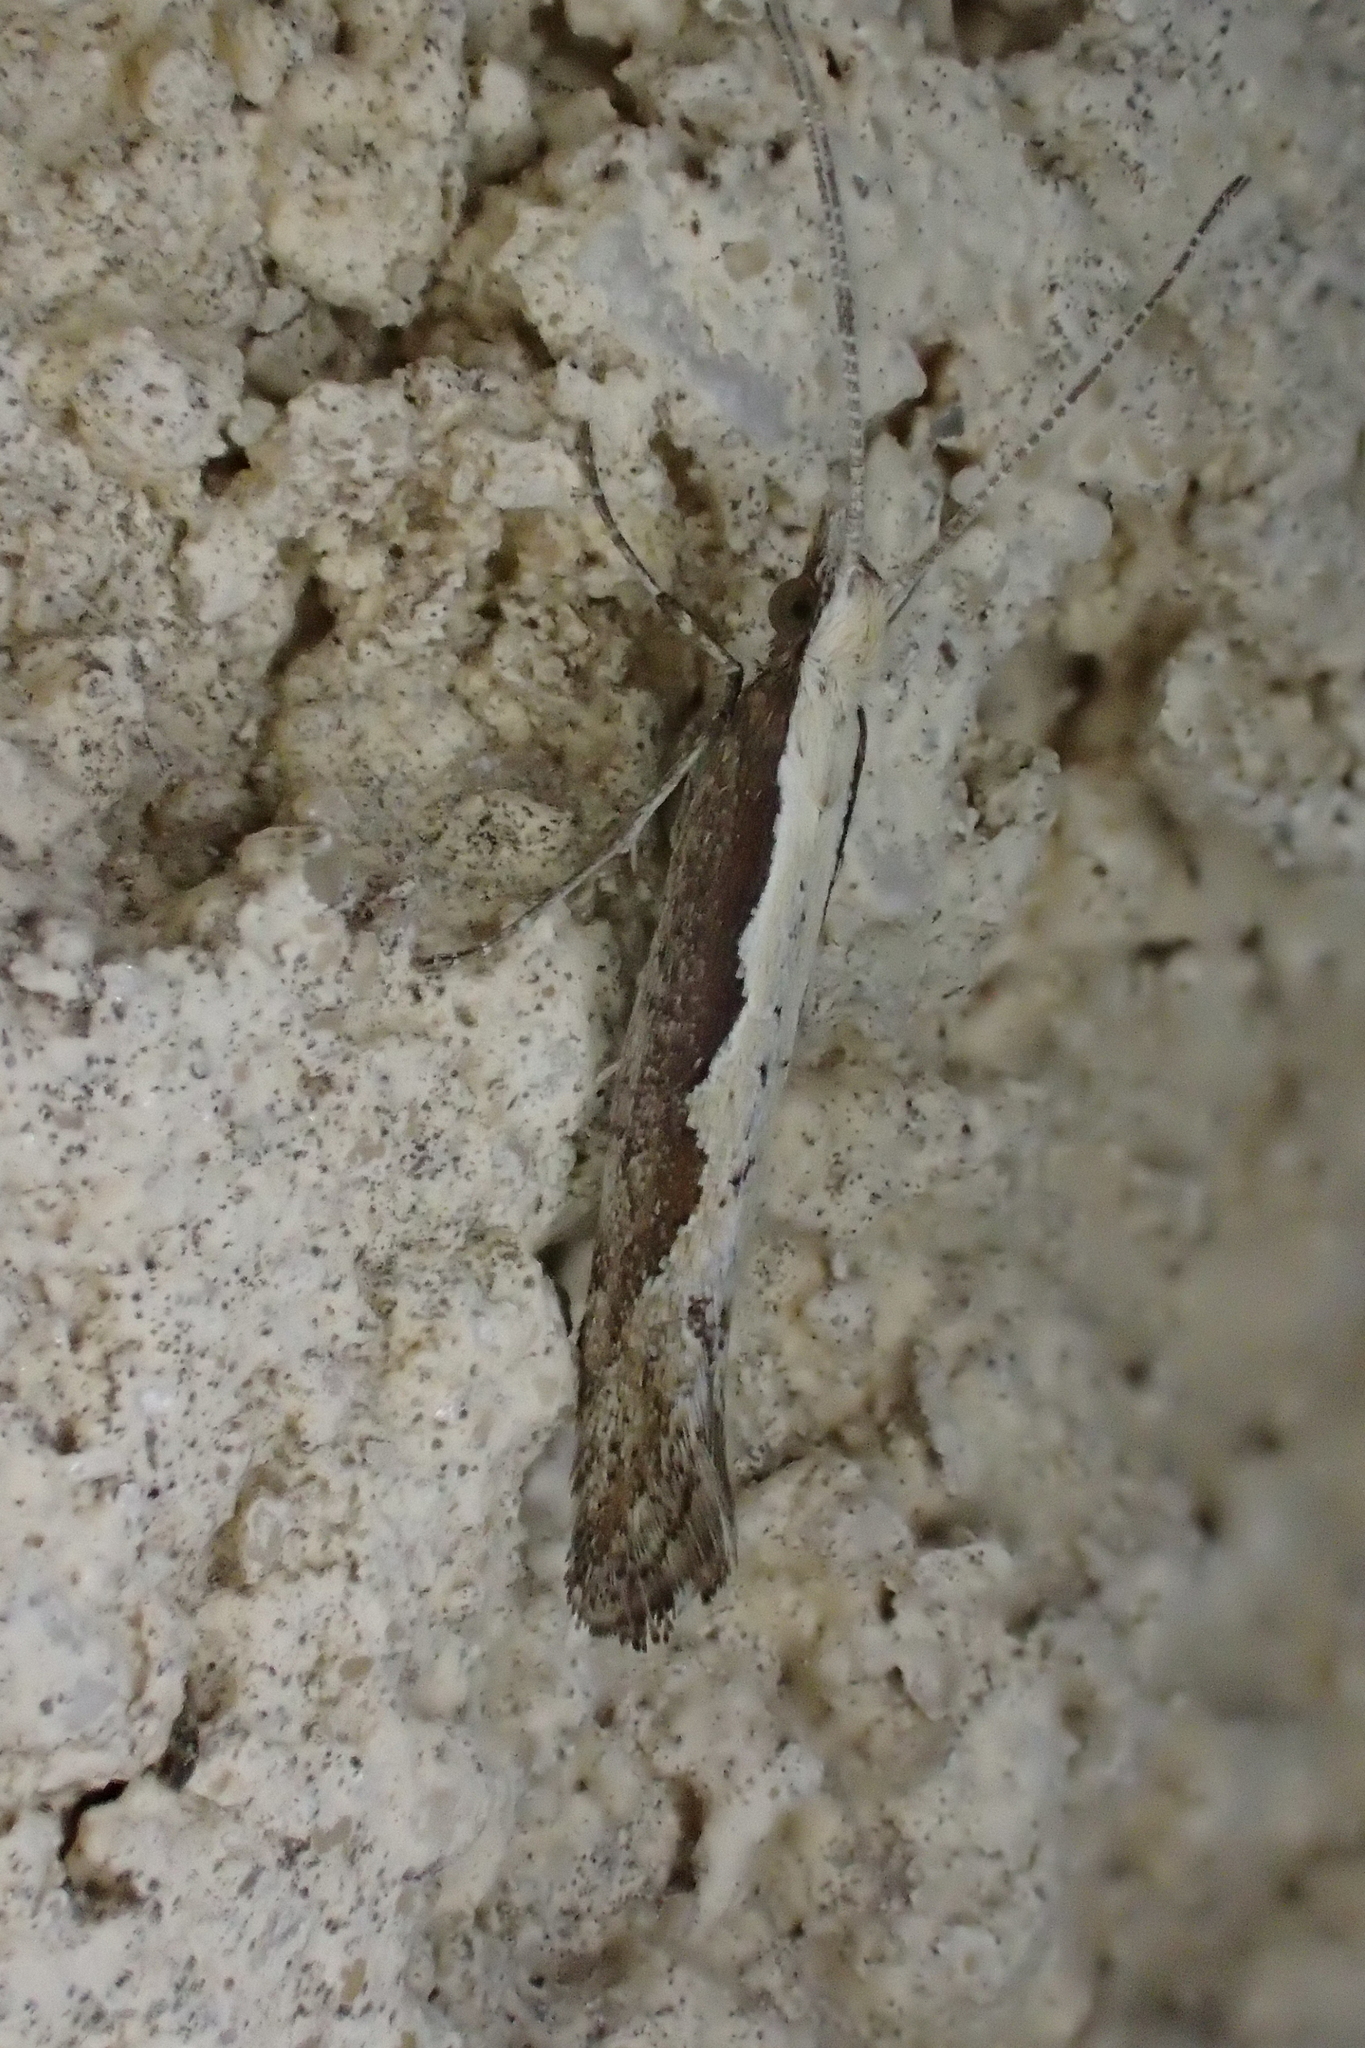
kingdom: Animalia
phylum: Arthropoda
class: Insecta
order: Lepidoptera
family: Plutellidae
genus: Plutella
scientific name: Plutella xylostella
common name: Diamond-back moth
